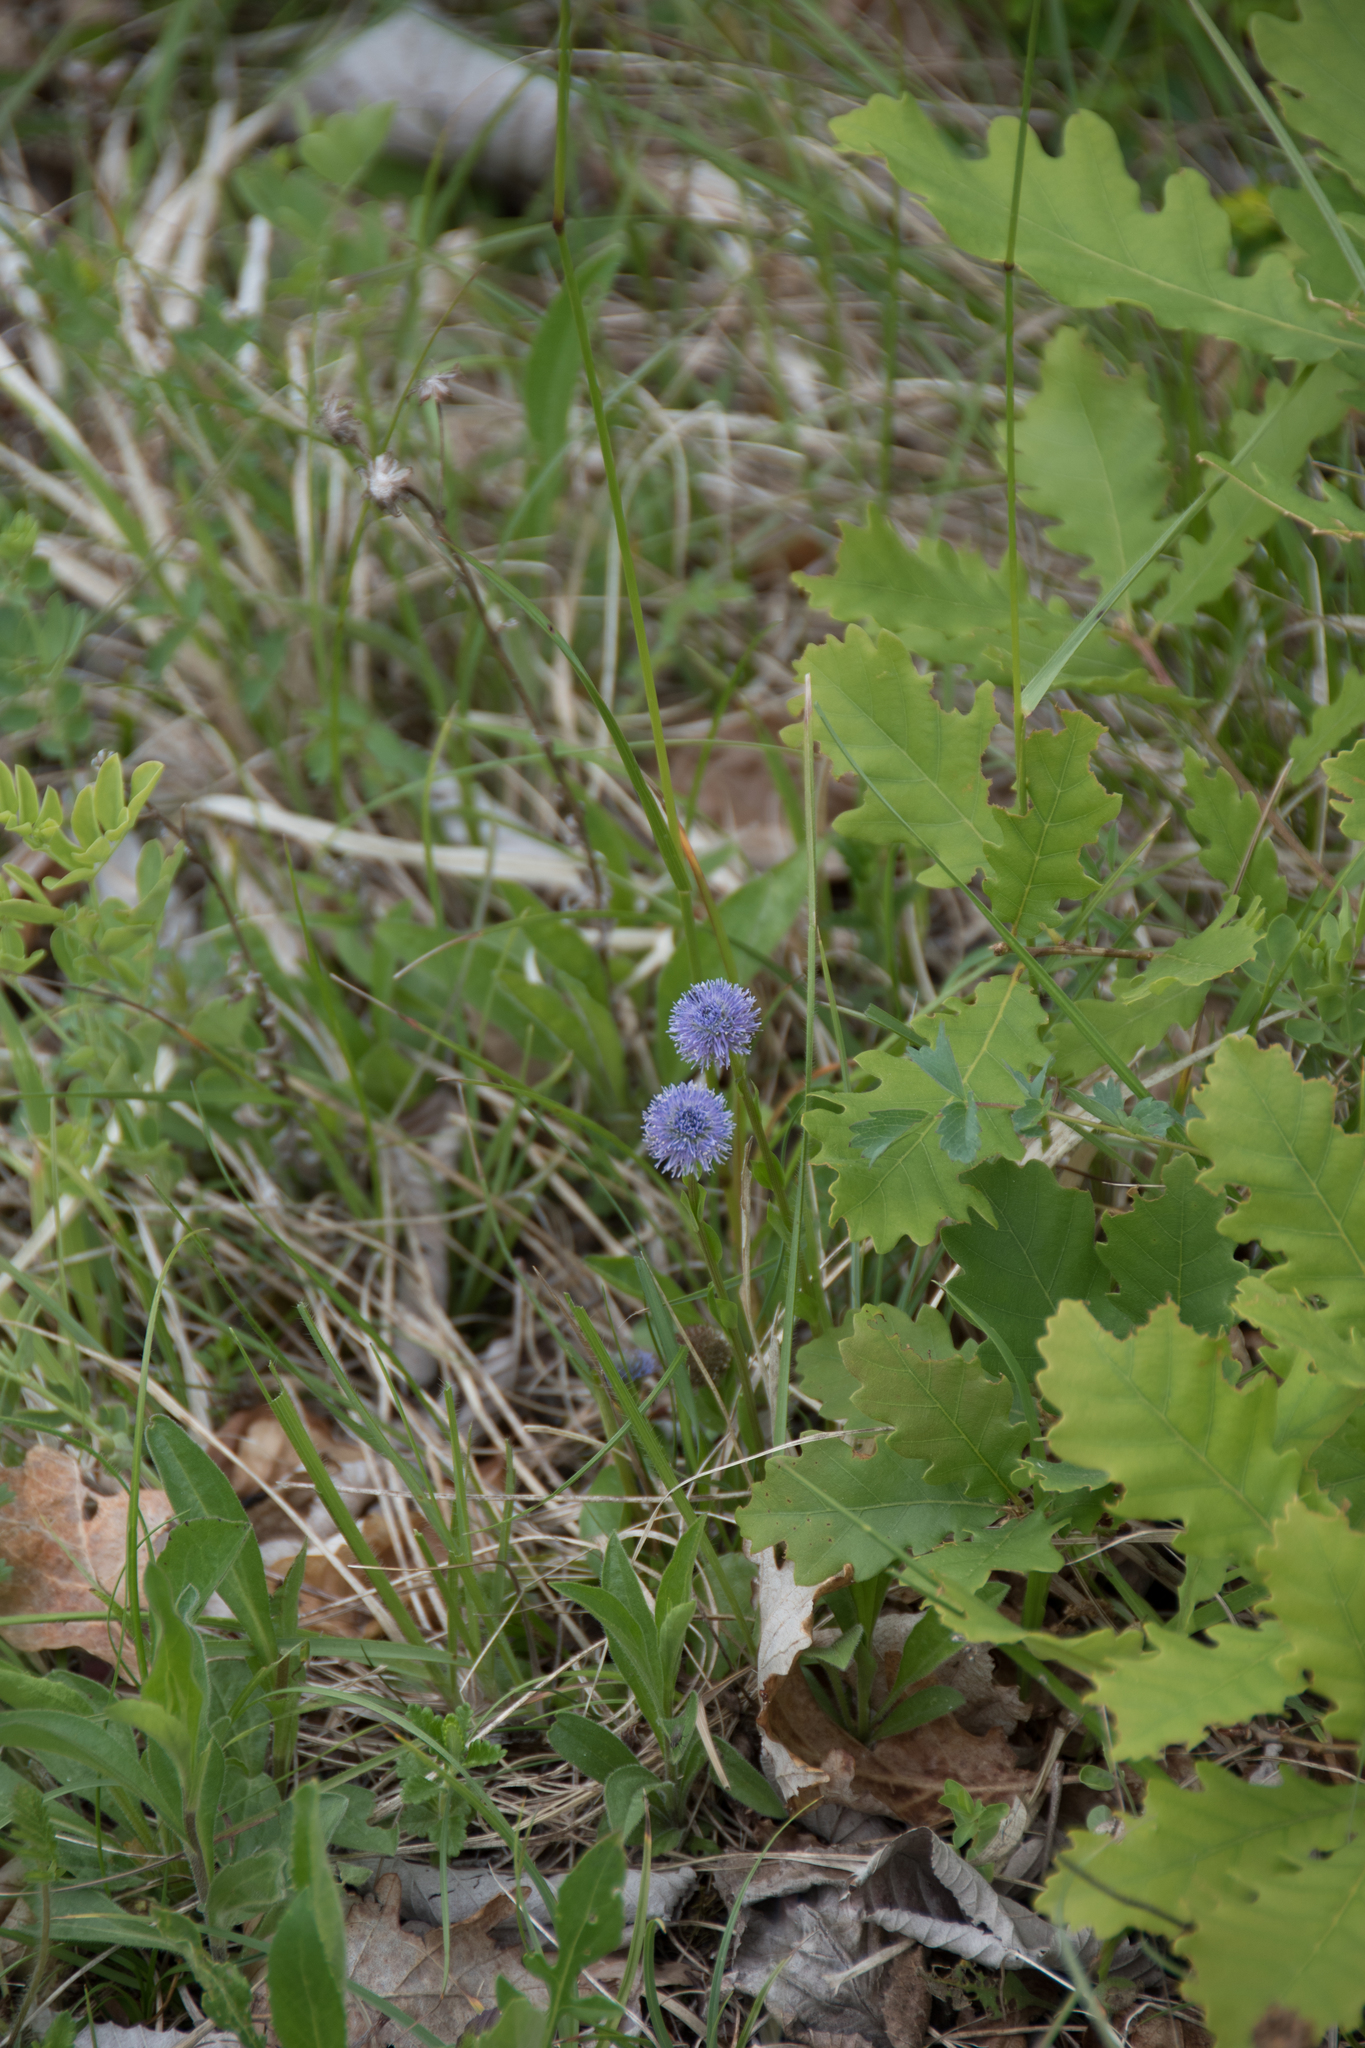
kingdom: Plantae
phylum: Tracheophyta
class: Magnoliopsida
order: Lamiales
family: Plantaginaceae
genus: Globularia
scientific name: Globularia bisnagarica
